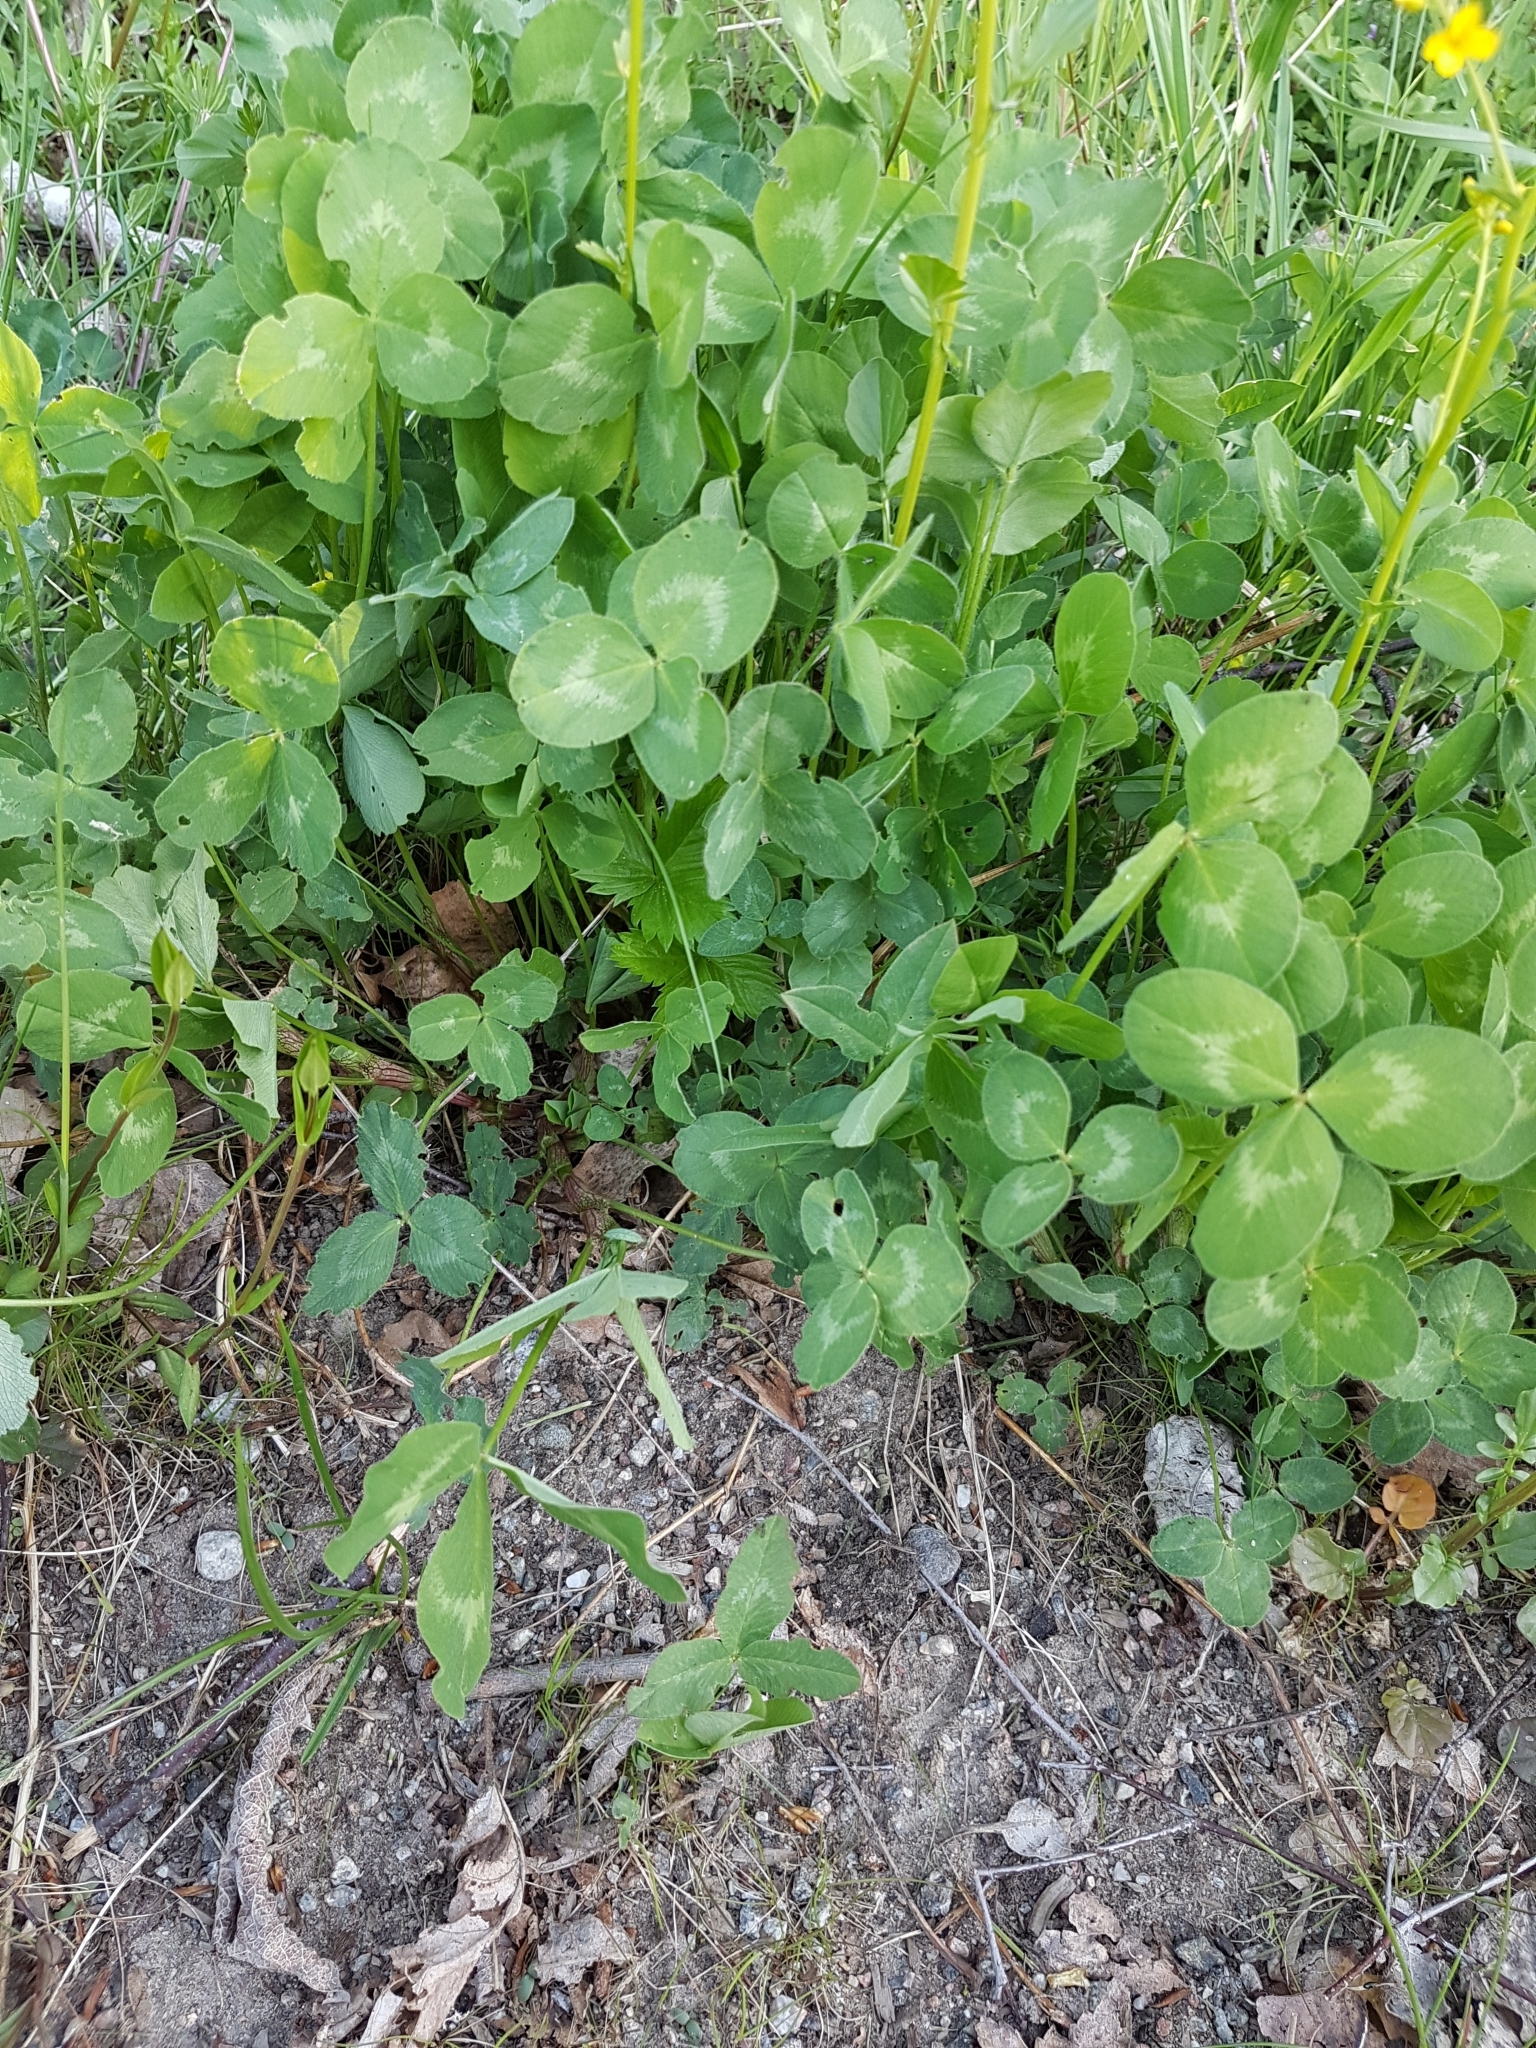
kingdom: Plantae
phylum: Tracheophyta
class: Magnoliopsida
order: Fabales
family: Fabaceae
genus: Trifolium
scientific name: Trifolium pratense
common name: Red clover
